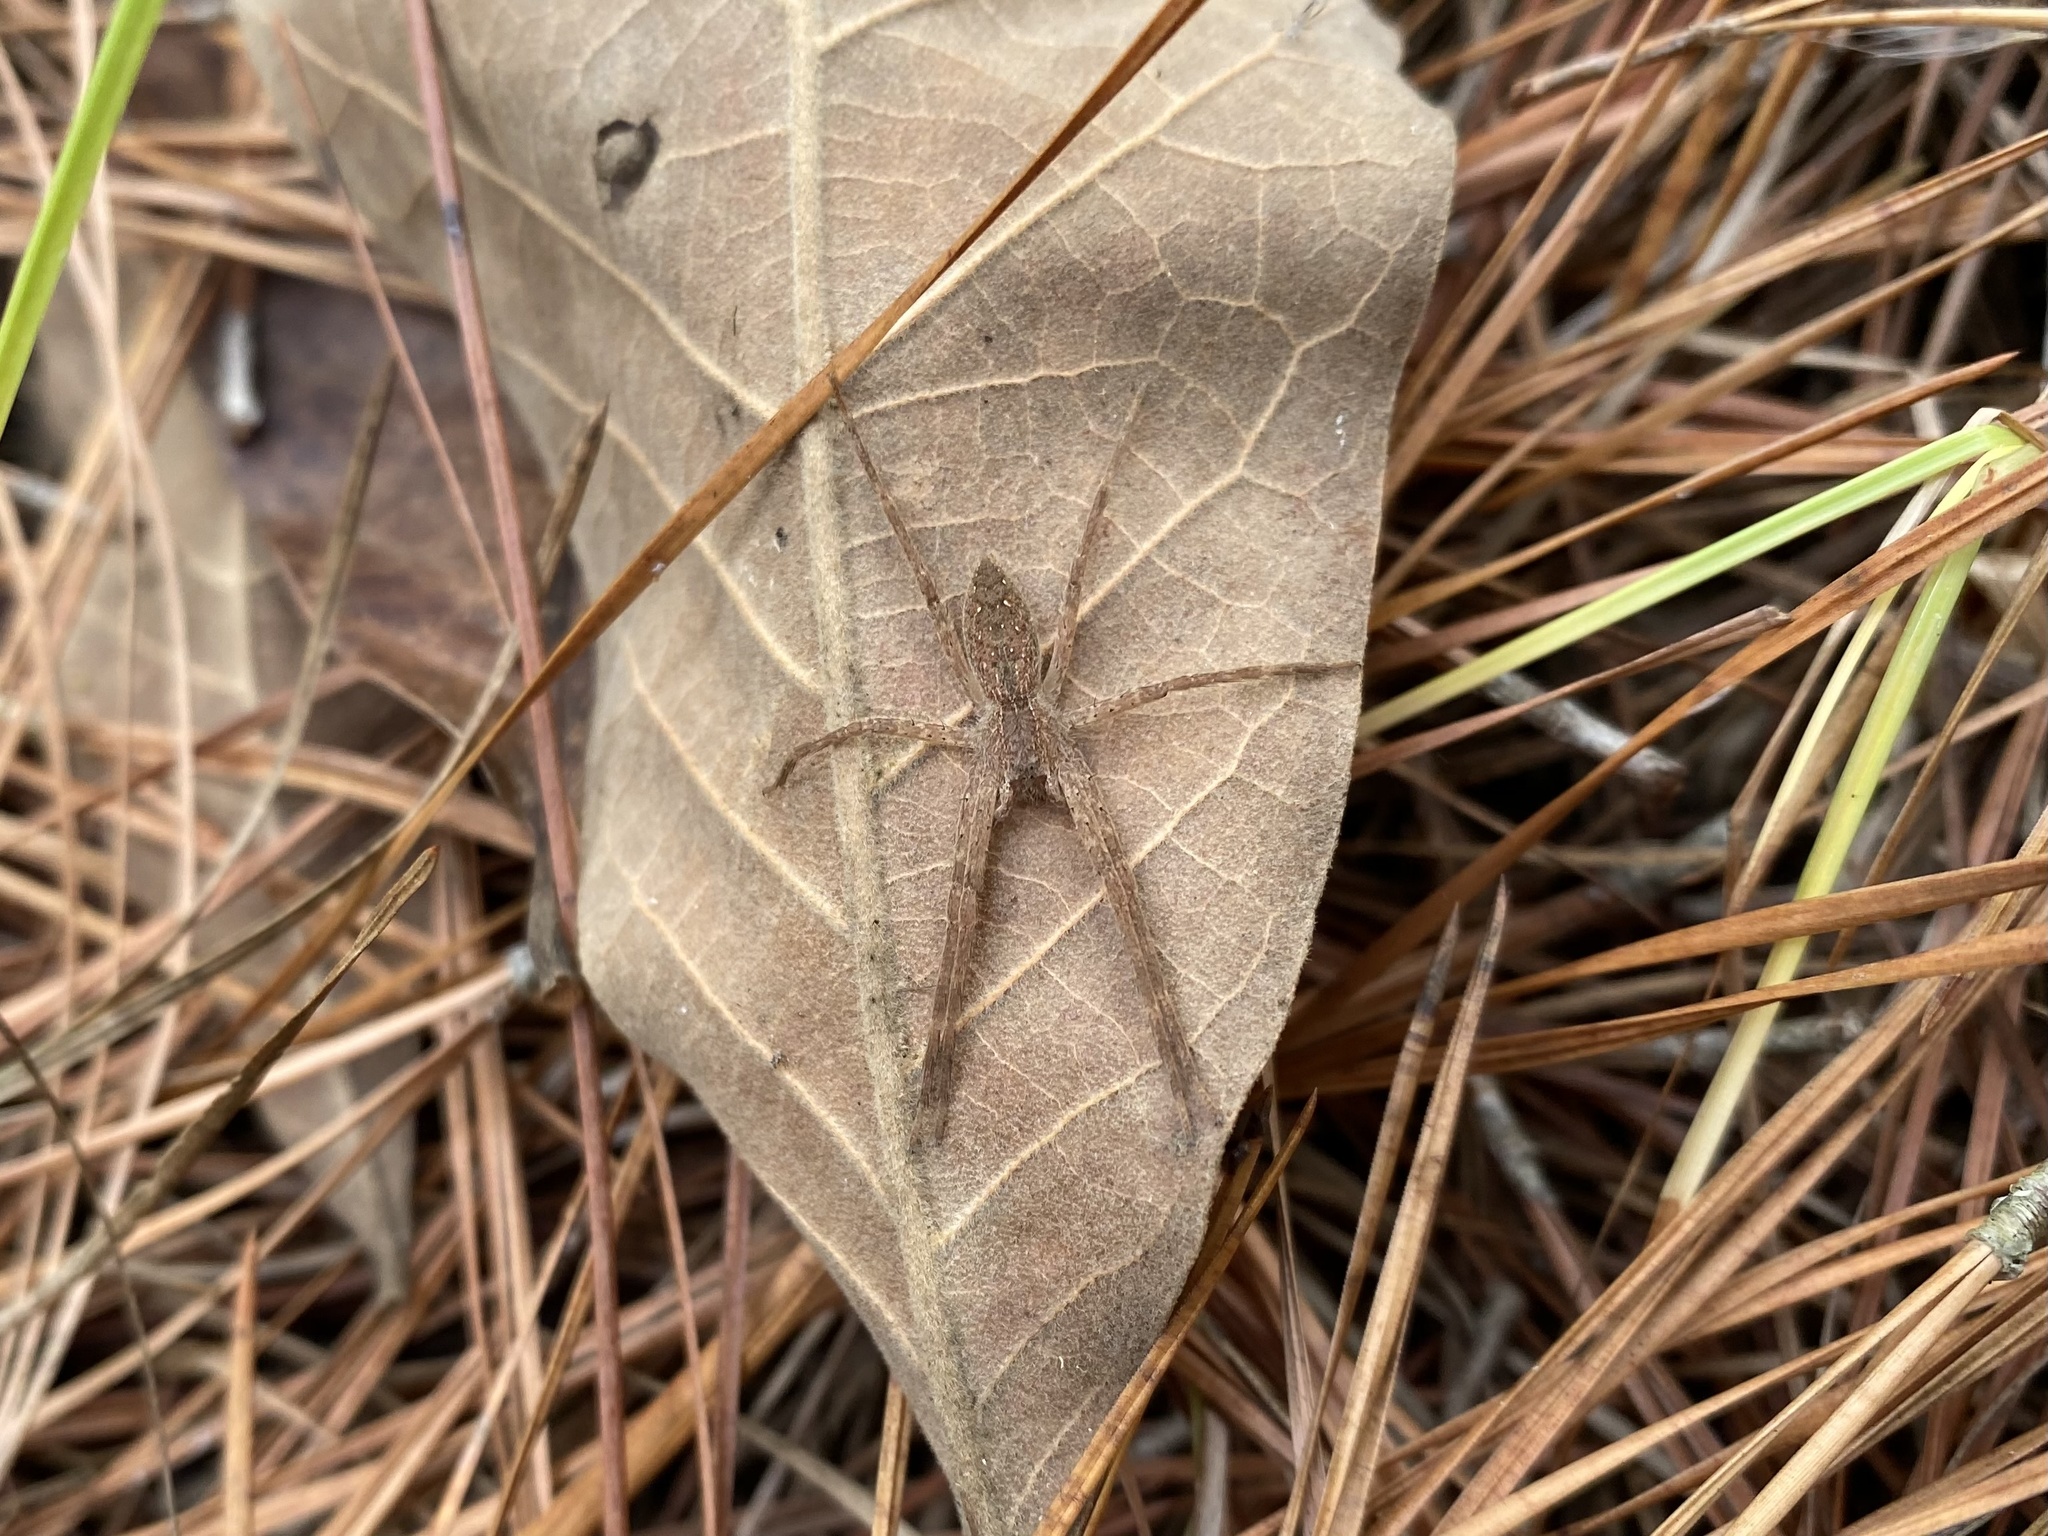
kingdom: Animalia
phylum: Arthropoda
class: Arachnida
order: Araneae
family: Pisauridae
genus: Pisaurina
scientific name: Pisaurina mira
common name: American nursery web spider
